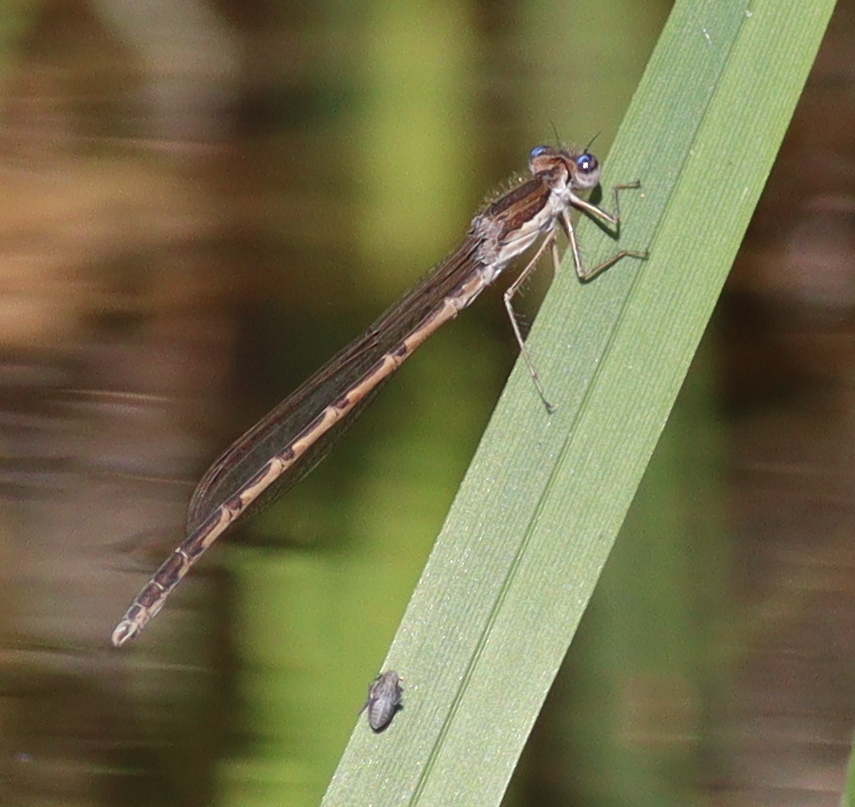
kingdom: Animalia
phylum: Arthropoda
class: Insecta
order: Odonata
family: Lestidae
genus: Sympecma
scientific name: Sympecma fusca
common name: Common winter damsel
